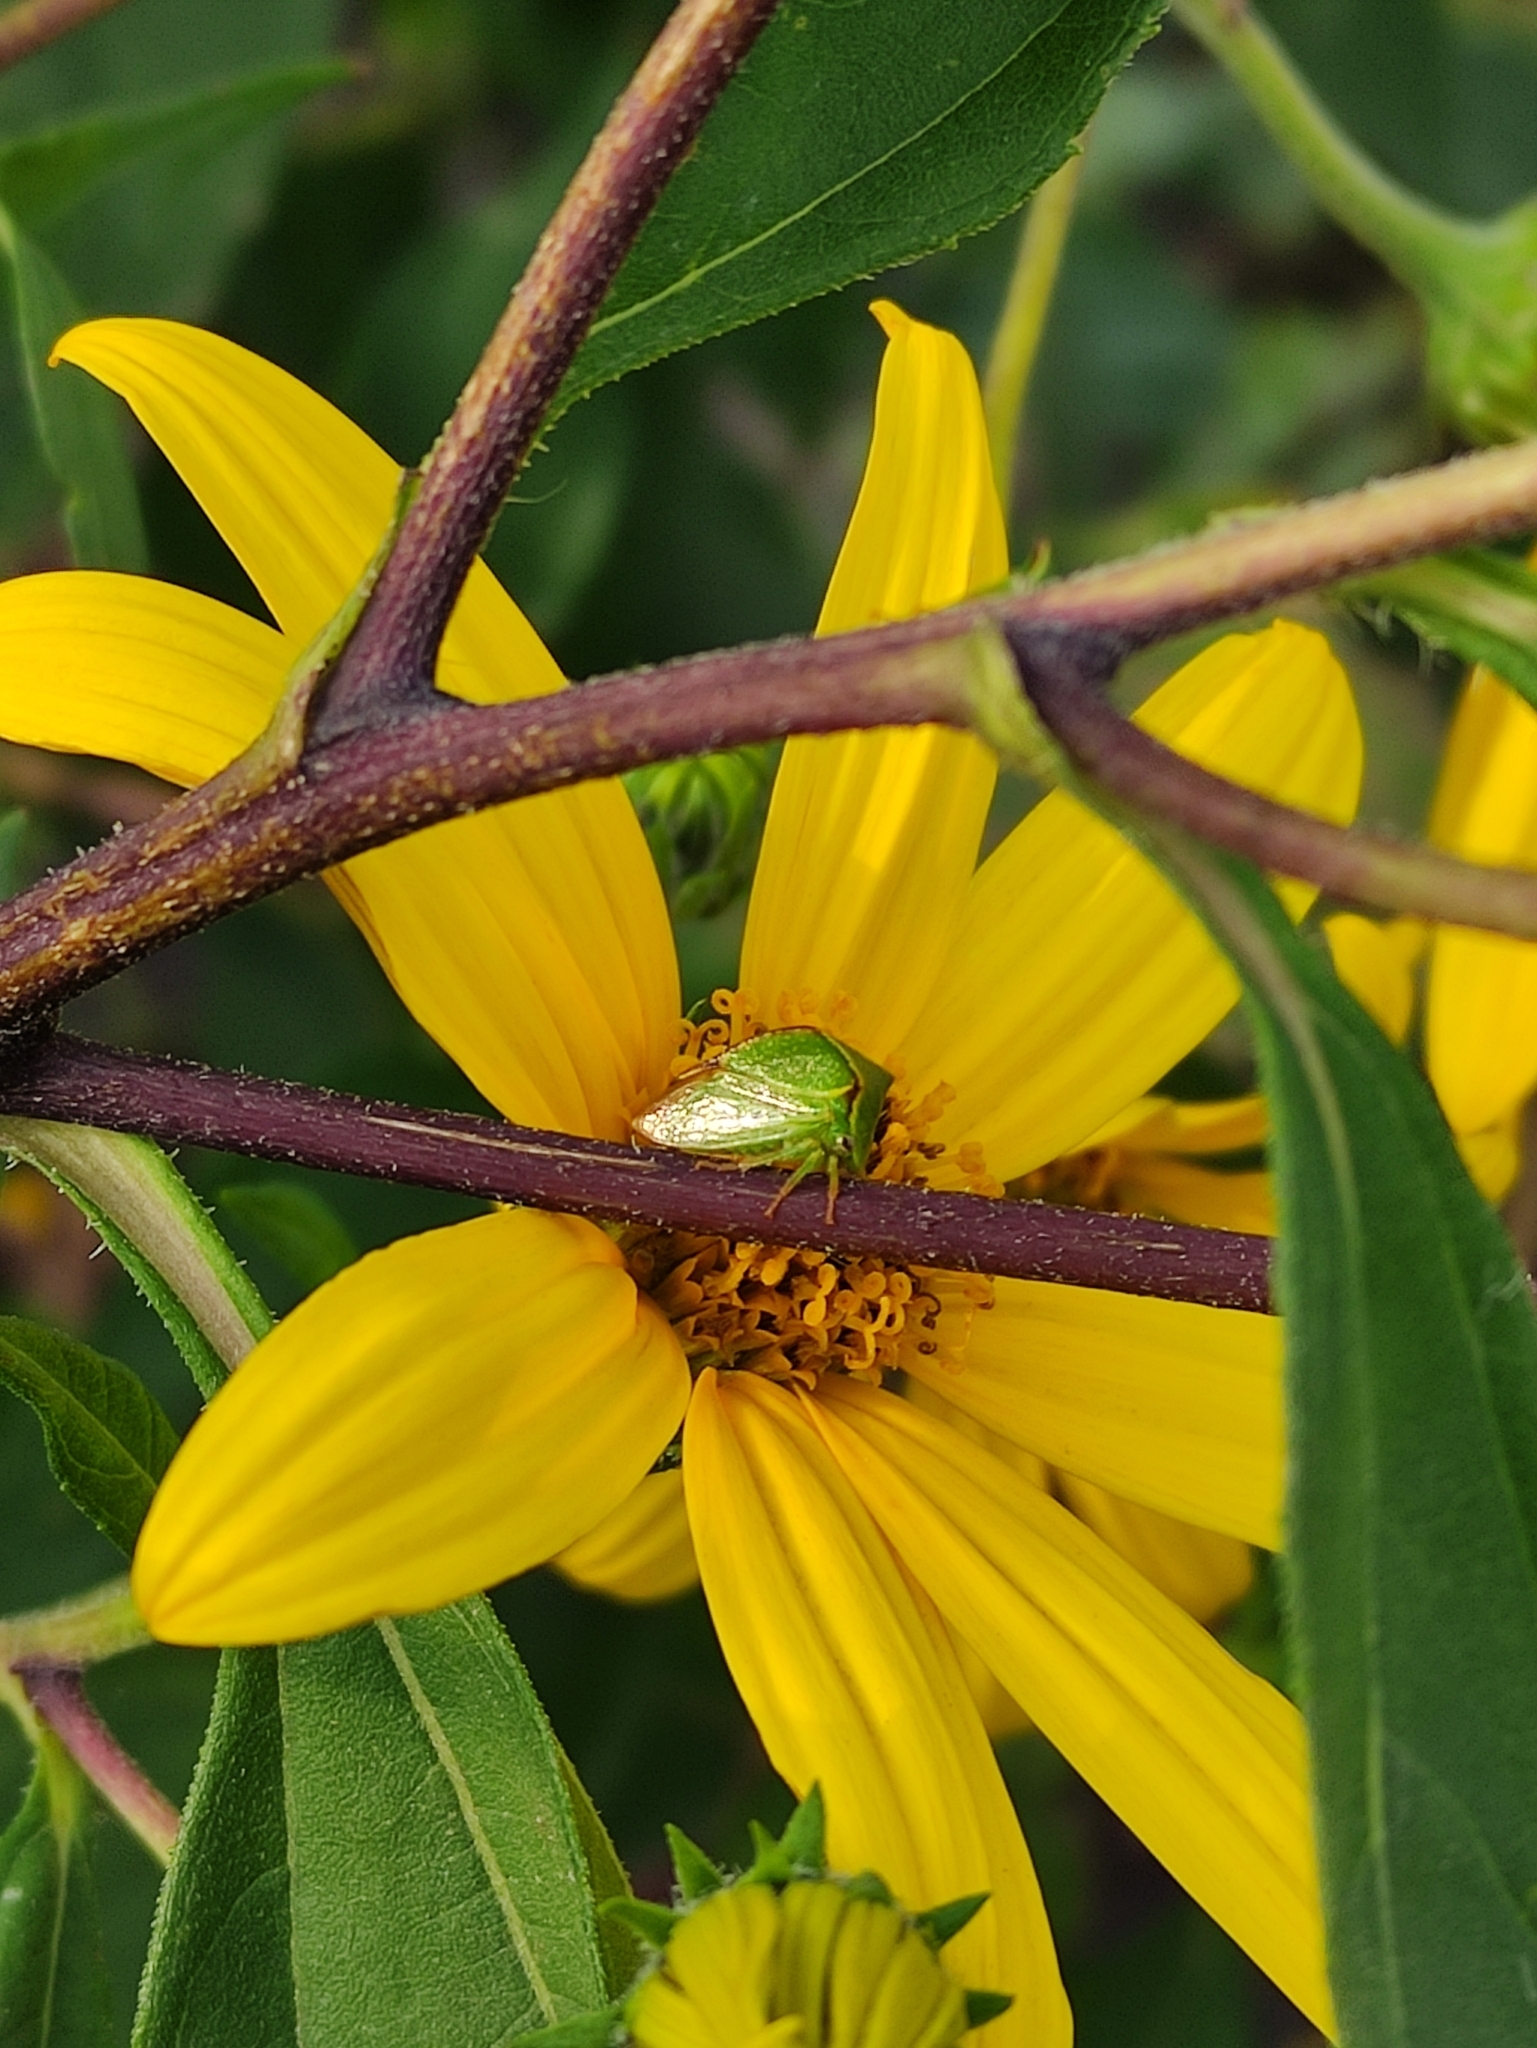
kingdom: Animalia
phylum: Arthropoda
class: Insecta
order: Hemiptera
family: Membracidae
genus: Stictocephala
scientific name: Stictocephala bisonia
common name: American buffalo treehopper
